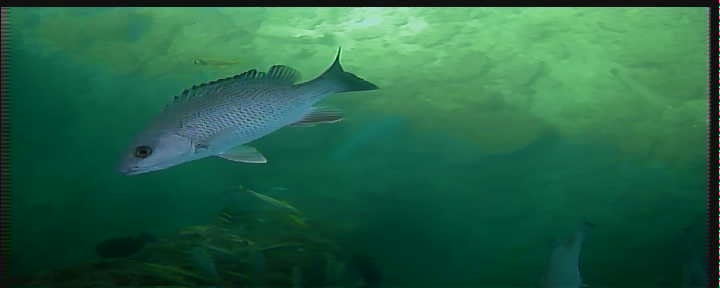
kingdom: Animalia
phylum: Chordata
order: Perciformes
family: Lutjanidae
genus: Lutjanus
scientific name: Lutjanus griseus
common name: Gray snapper
